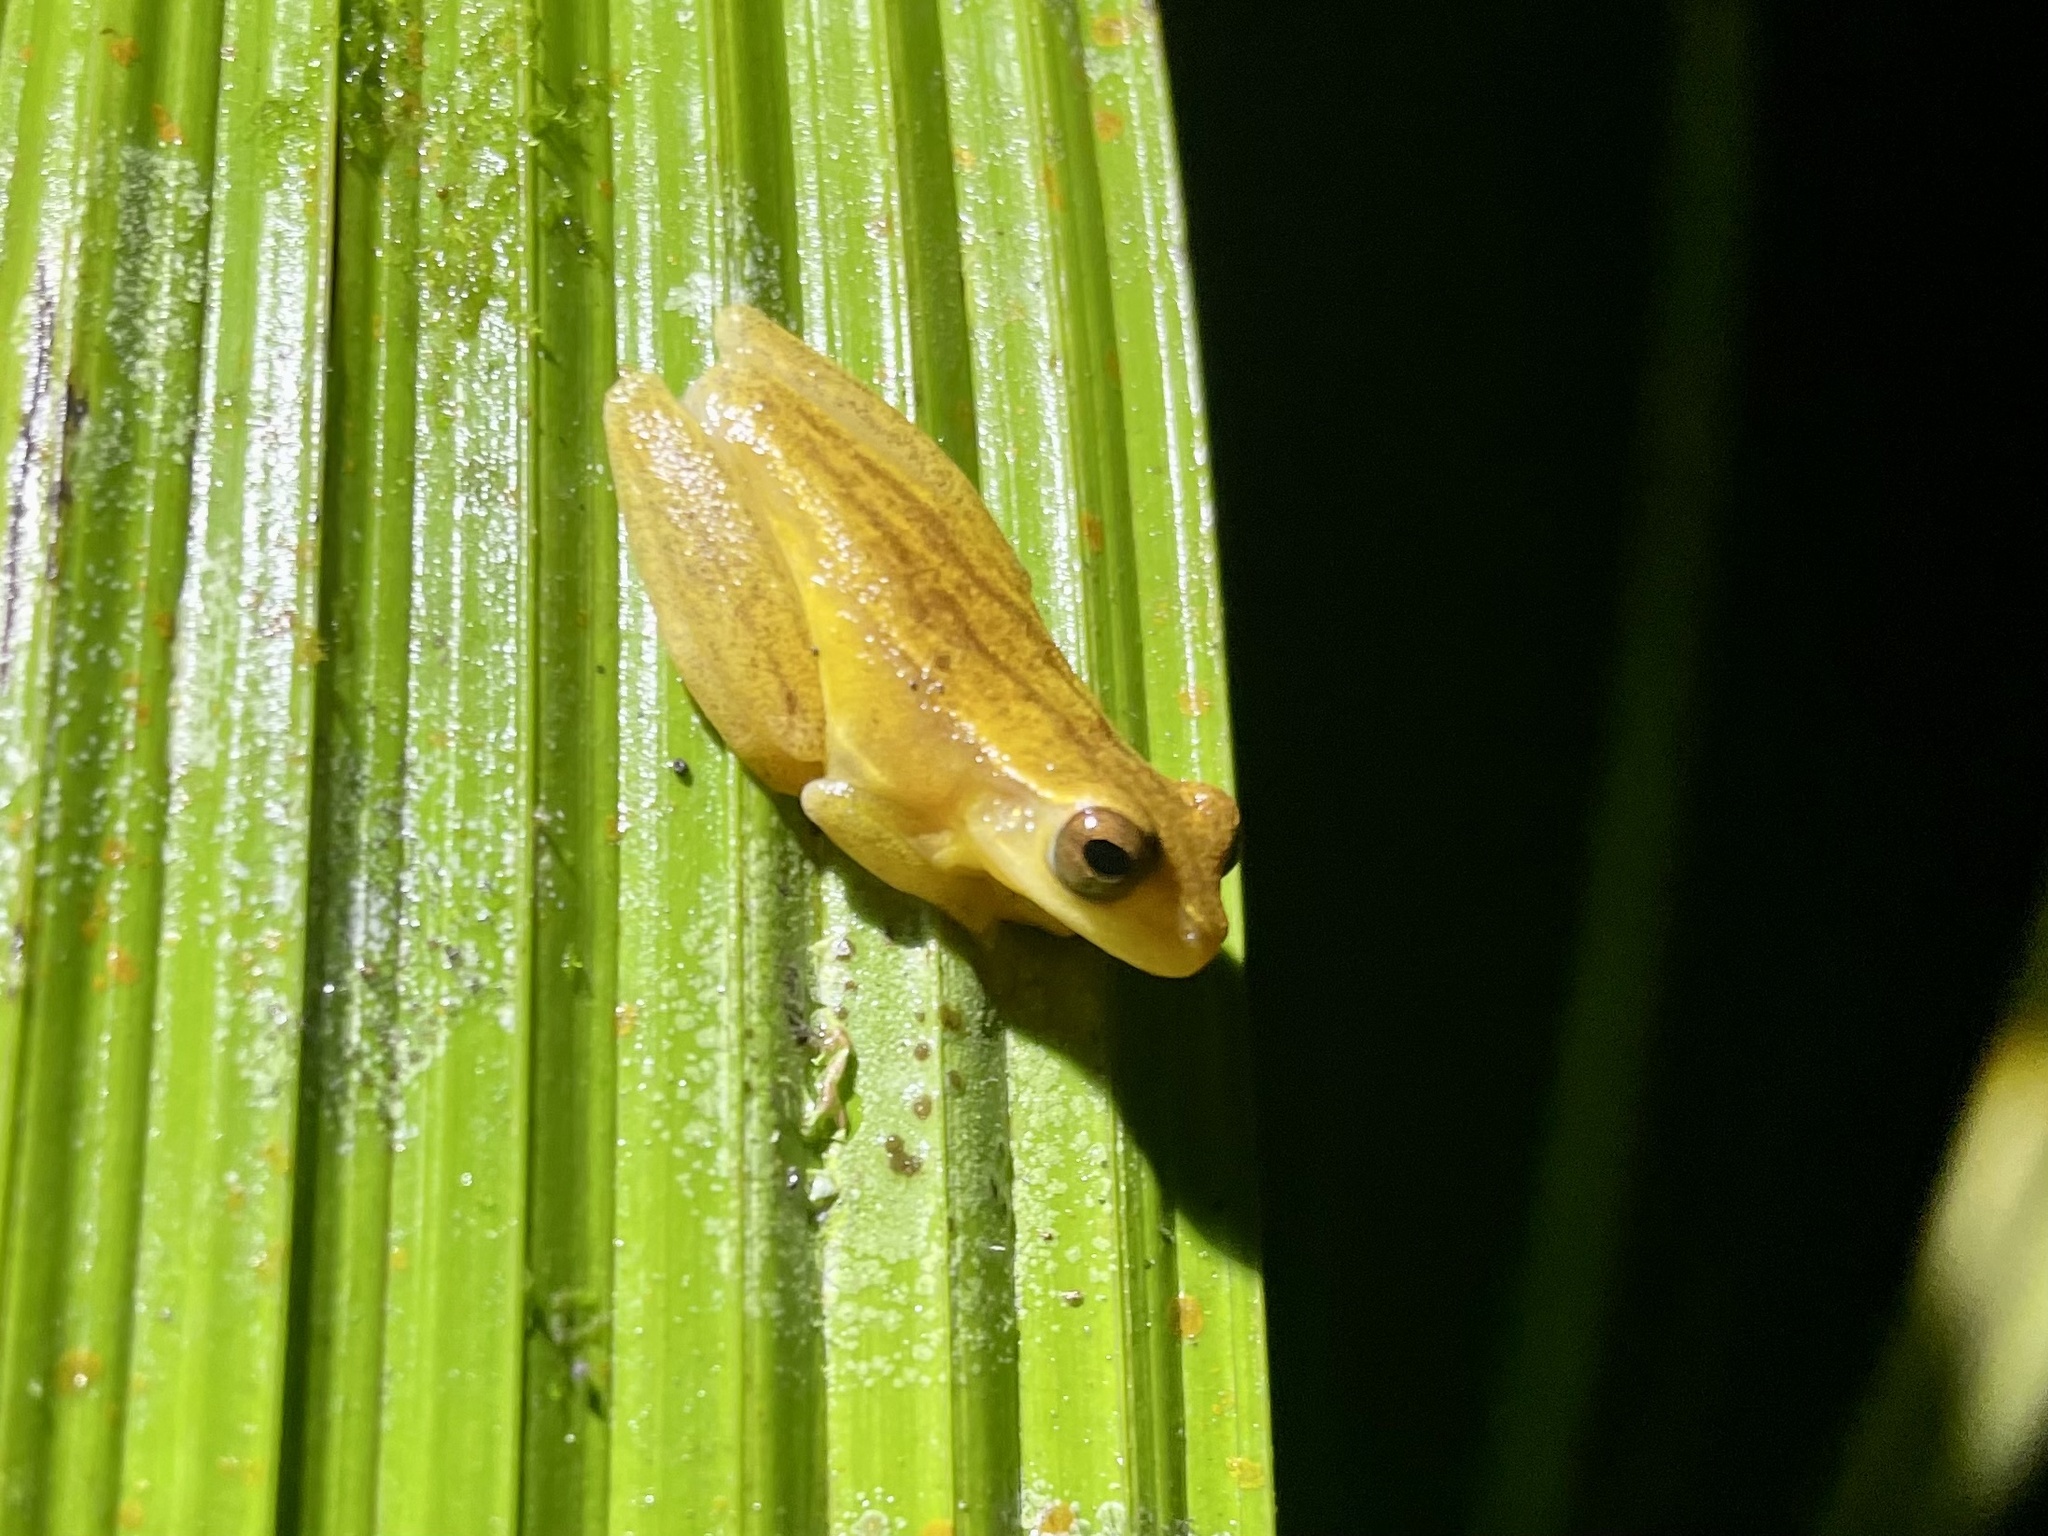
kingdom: Animalia
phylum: Chordata
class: Amphibia
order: Anura
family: Hylidae
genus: Dendropsophus
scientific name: Dendropsophus microcephalus
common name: Small-headed treefrog
